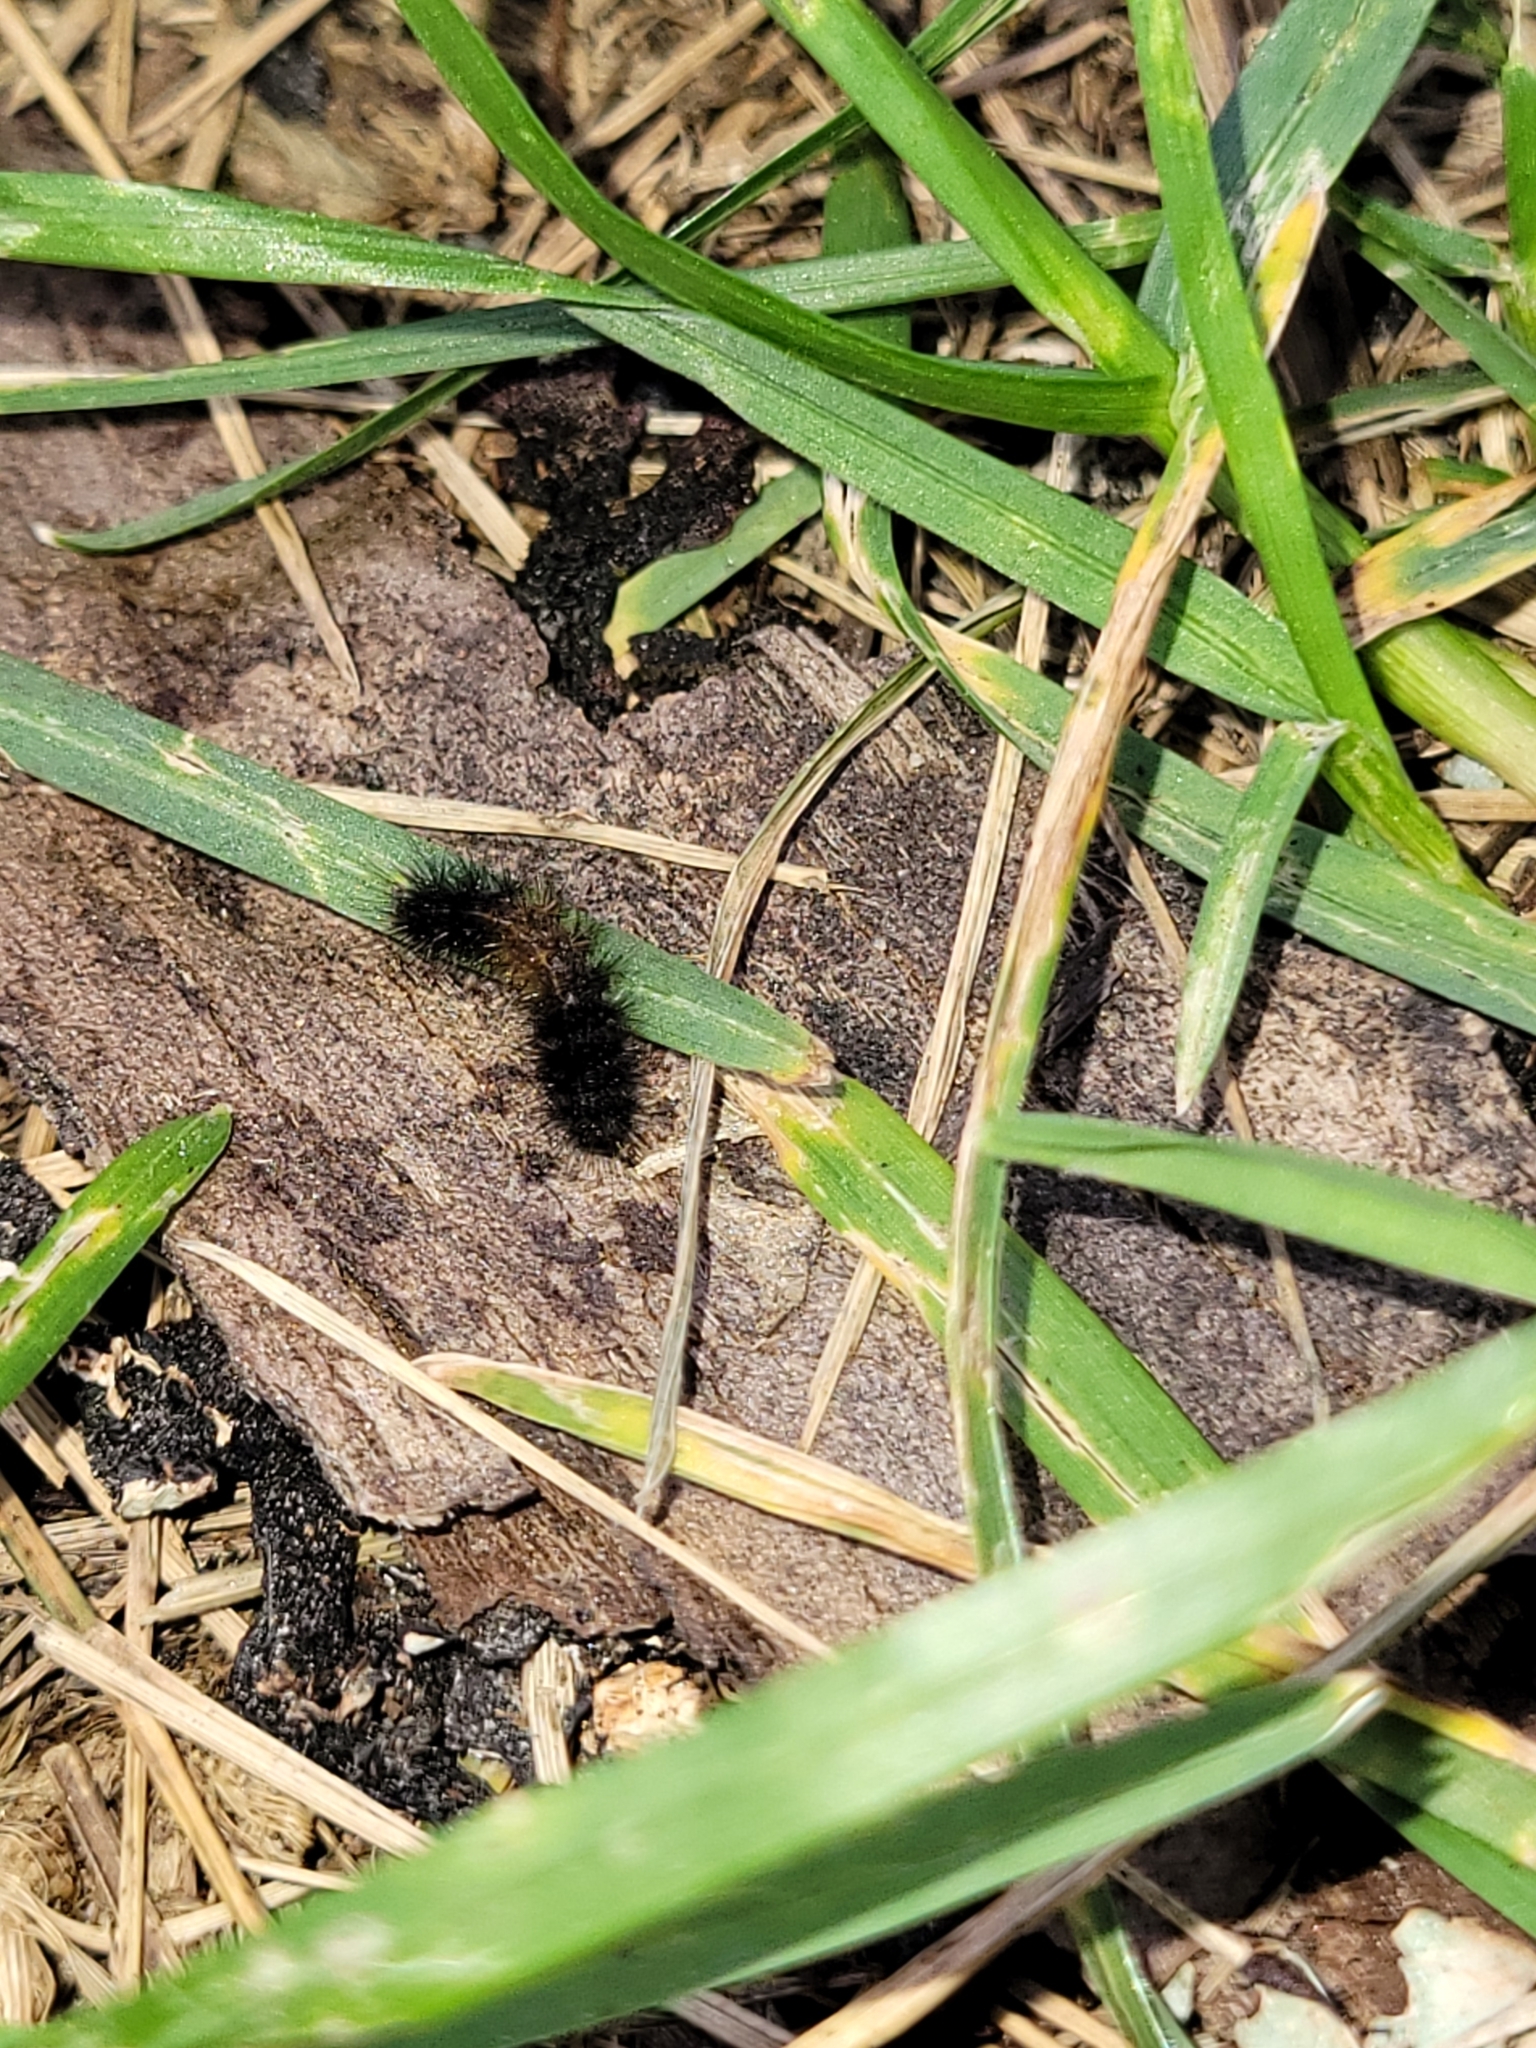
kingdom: Animalia
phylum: Arthropoda
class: Insecta
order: Lepidoptera
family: Erebidae
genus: Pyrrharctia
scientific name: Pyrrharctia isabella
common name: Isabella tiger moth
